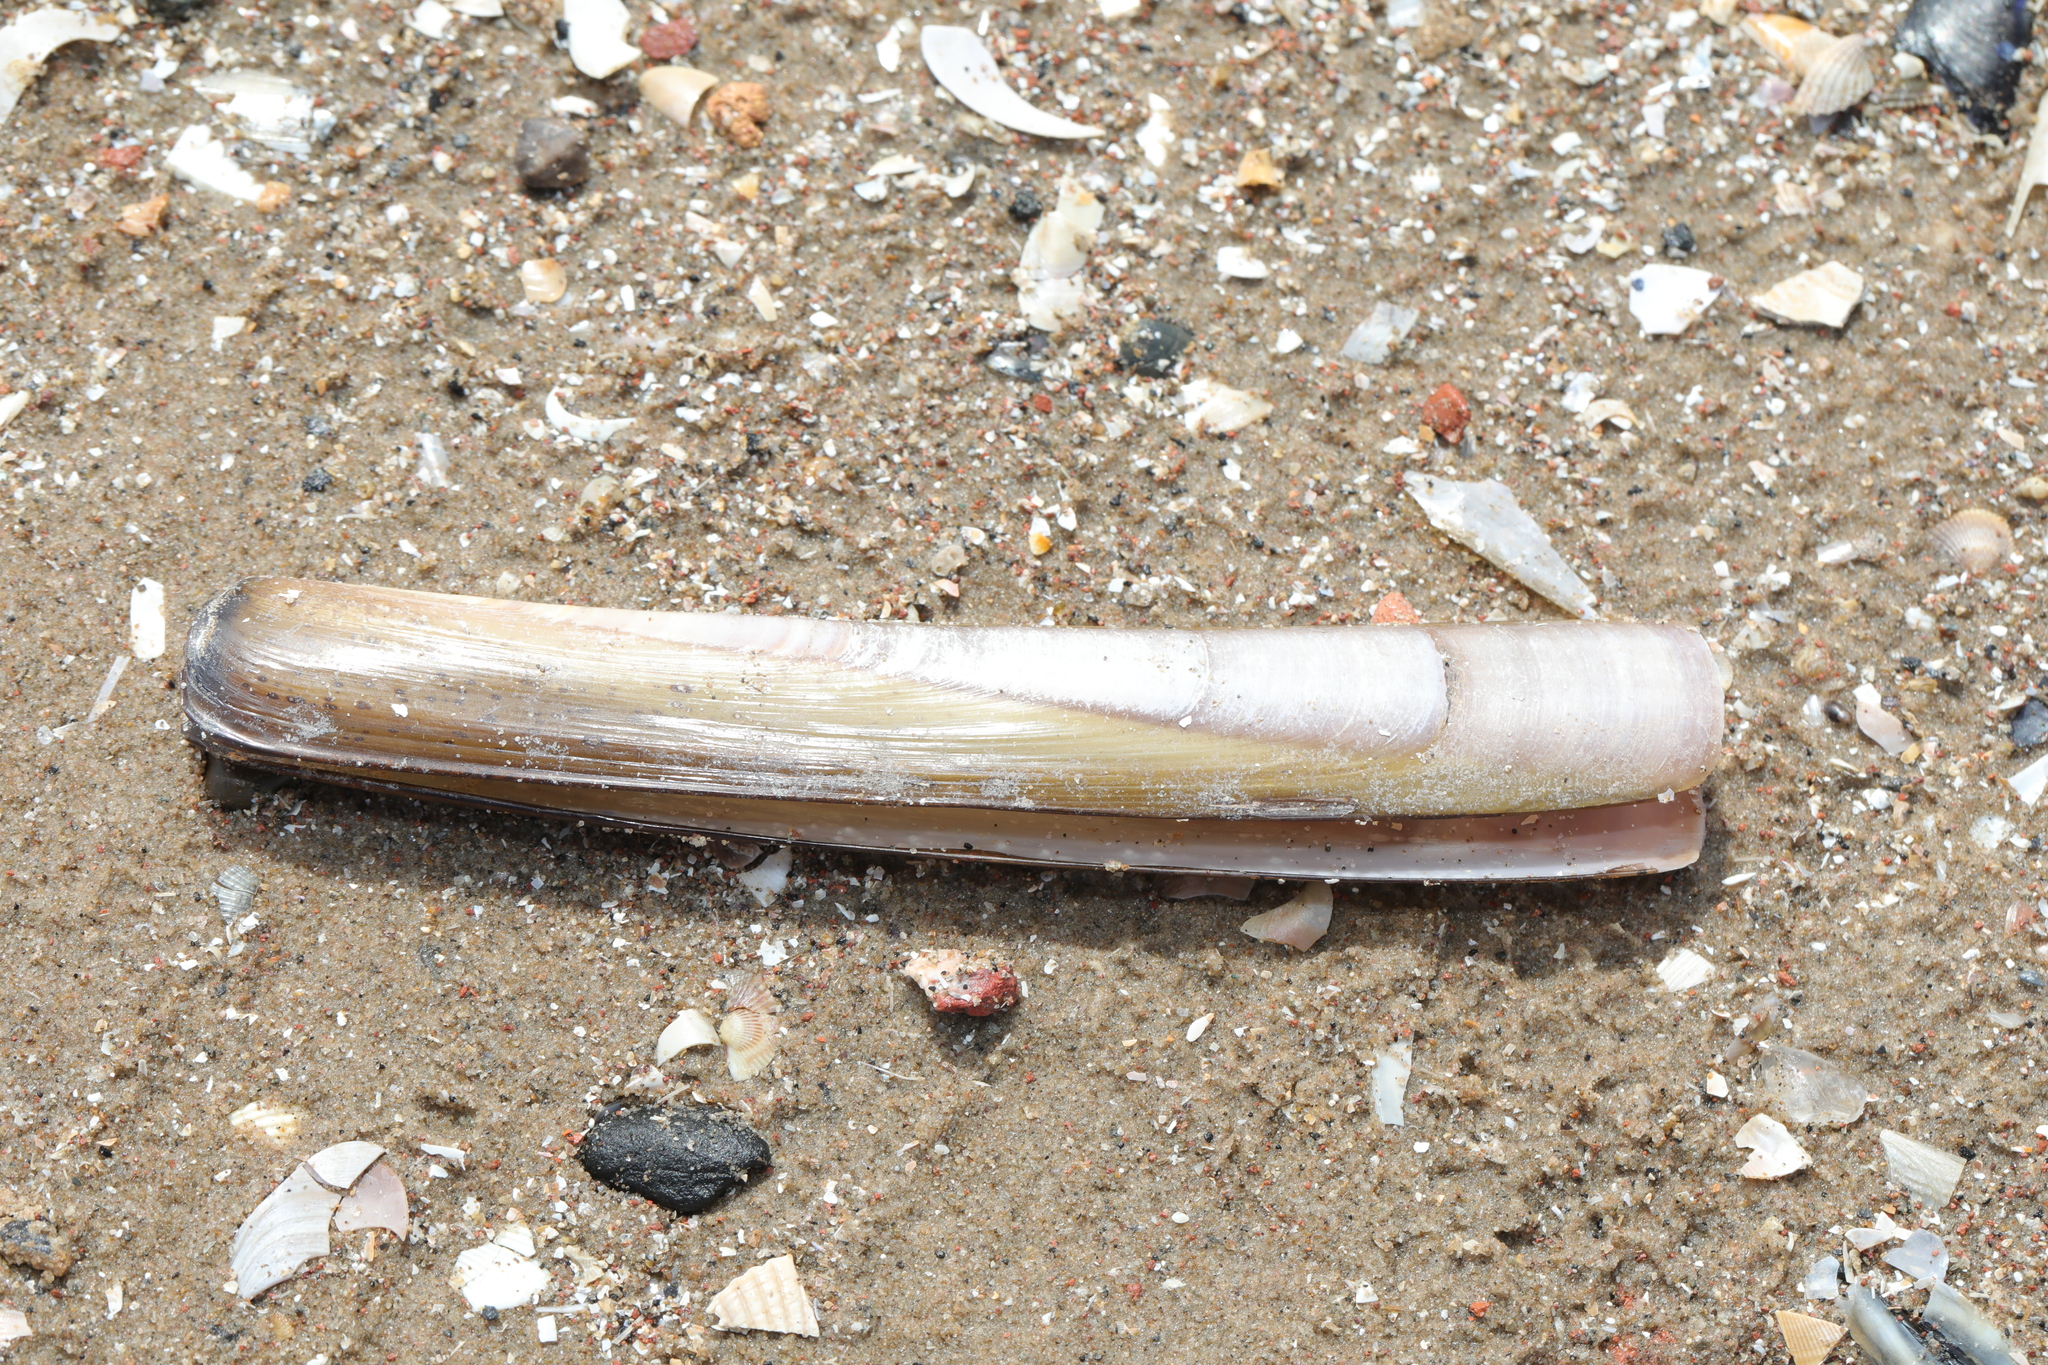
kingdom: Animalia
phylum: Mollusca
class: Bivalvia
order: Adapedonta
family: Pharidae
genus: Ensis
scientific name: Ensis leei
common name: American jack knife clam
